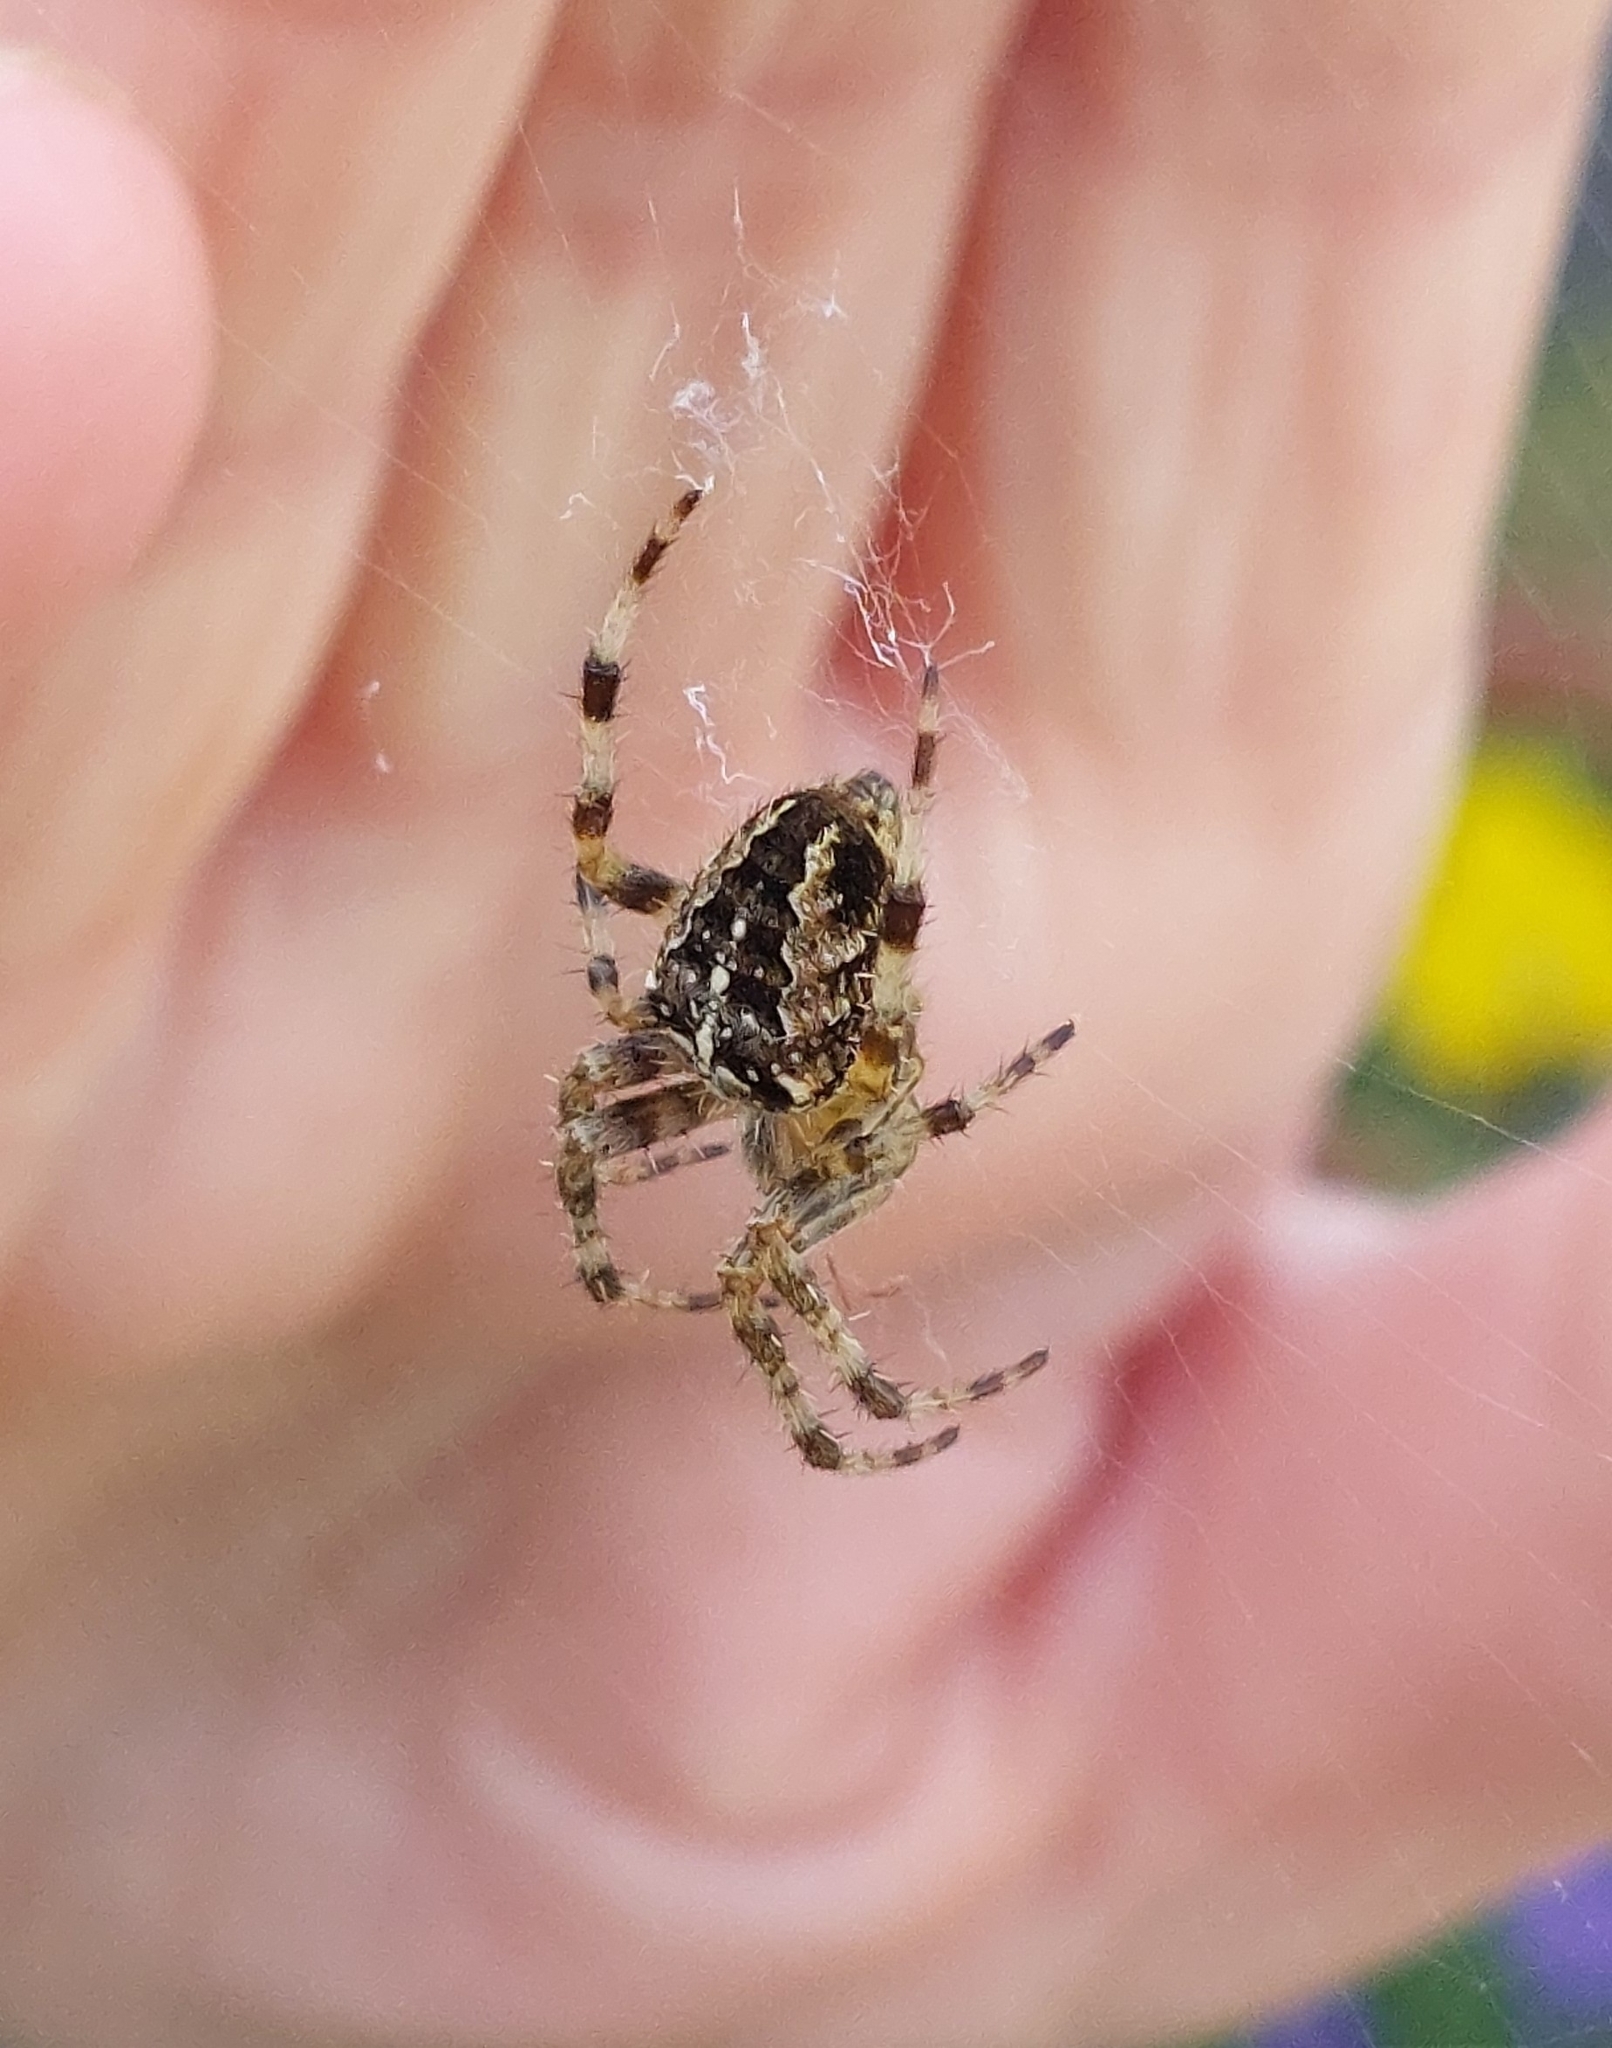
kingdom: Animalia
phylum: Arthropoda
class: Arachnida
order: Araneae
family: Araneidae
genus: Araneus
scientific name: Araneus diadematus
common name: Cross orbweaver
